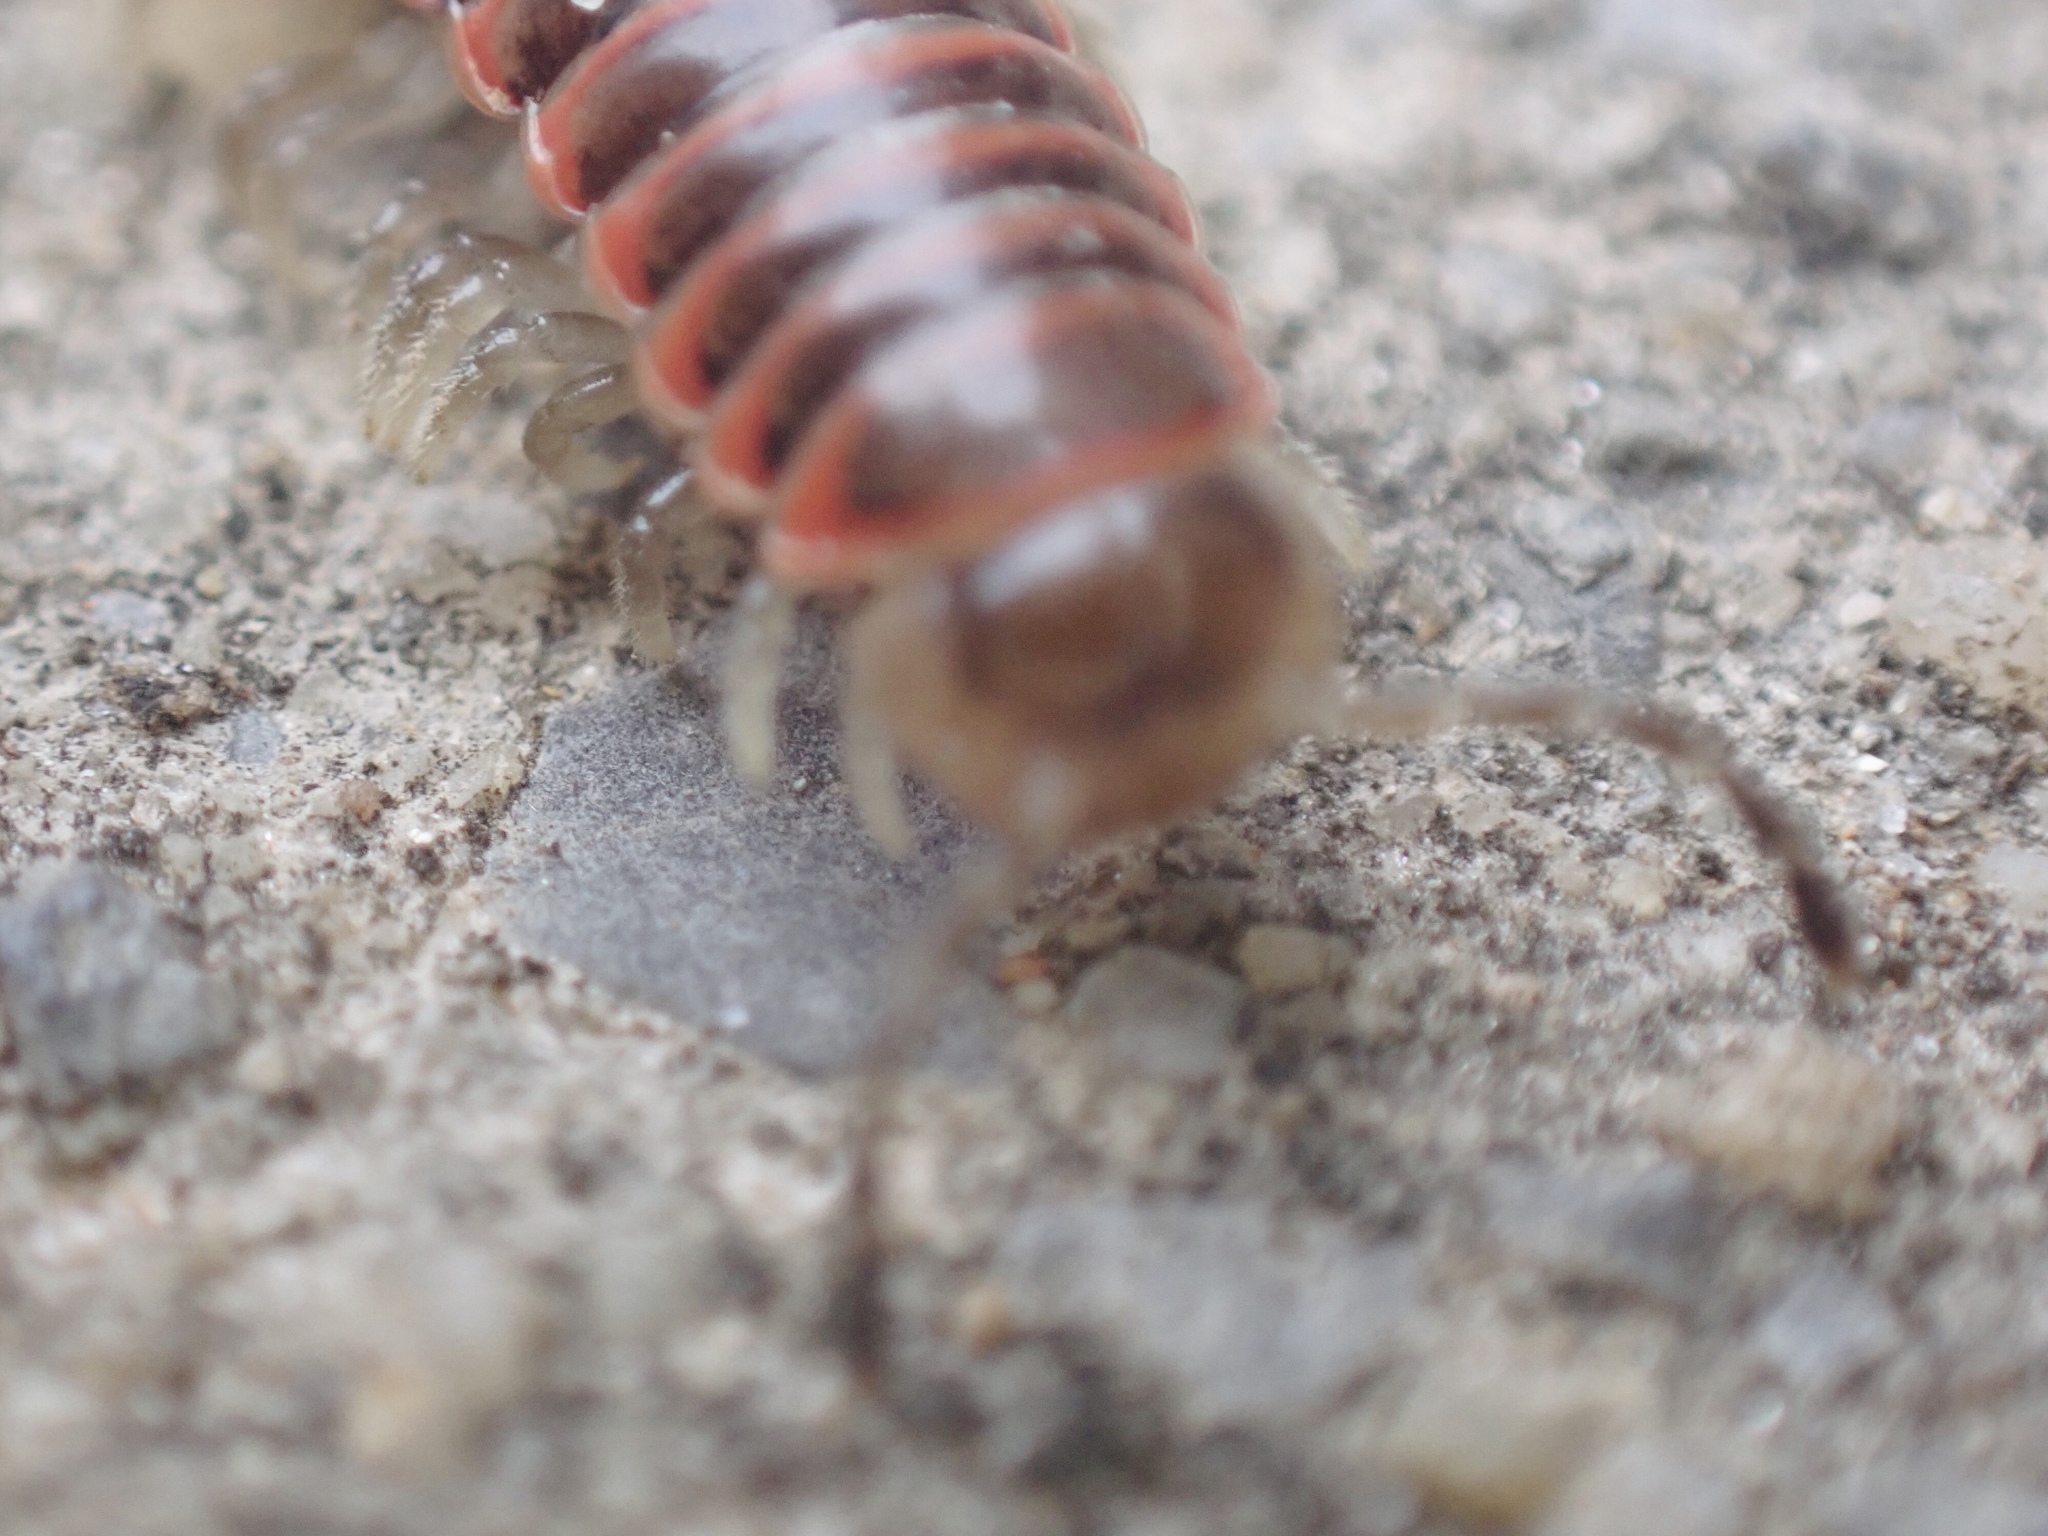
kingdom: Animalia
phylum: Arthropoda
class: Diplopoda
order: Polydesmida
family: Xystodesmidae
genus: Oenomaea
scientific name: Oenomaea pulchella
